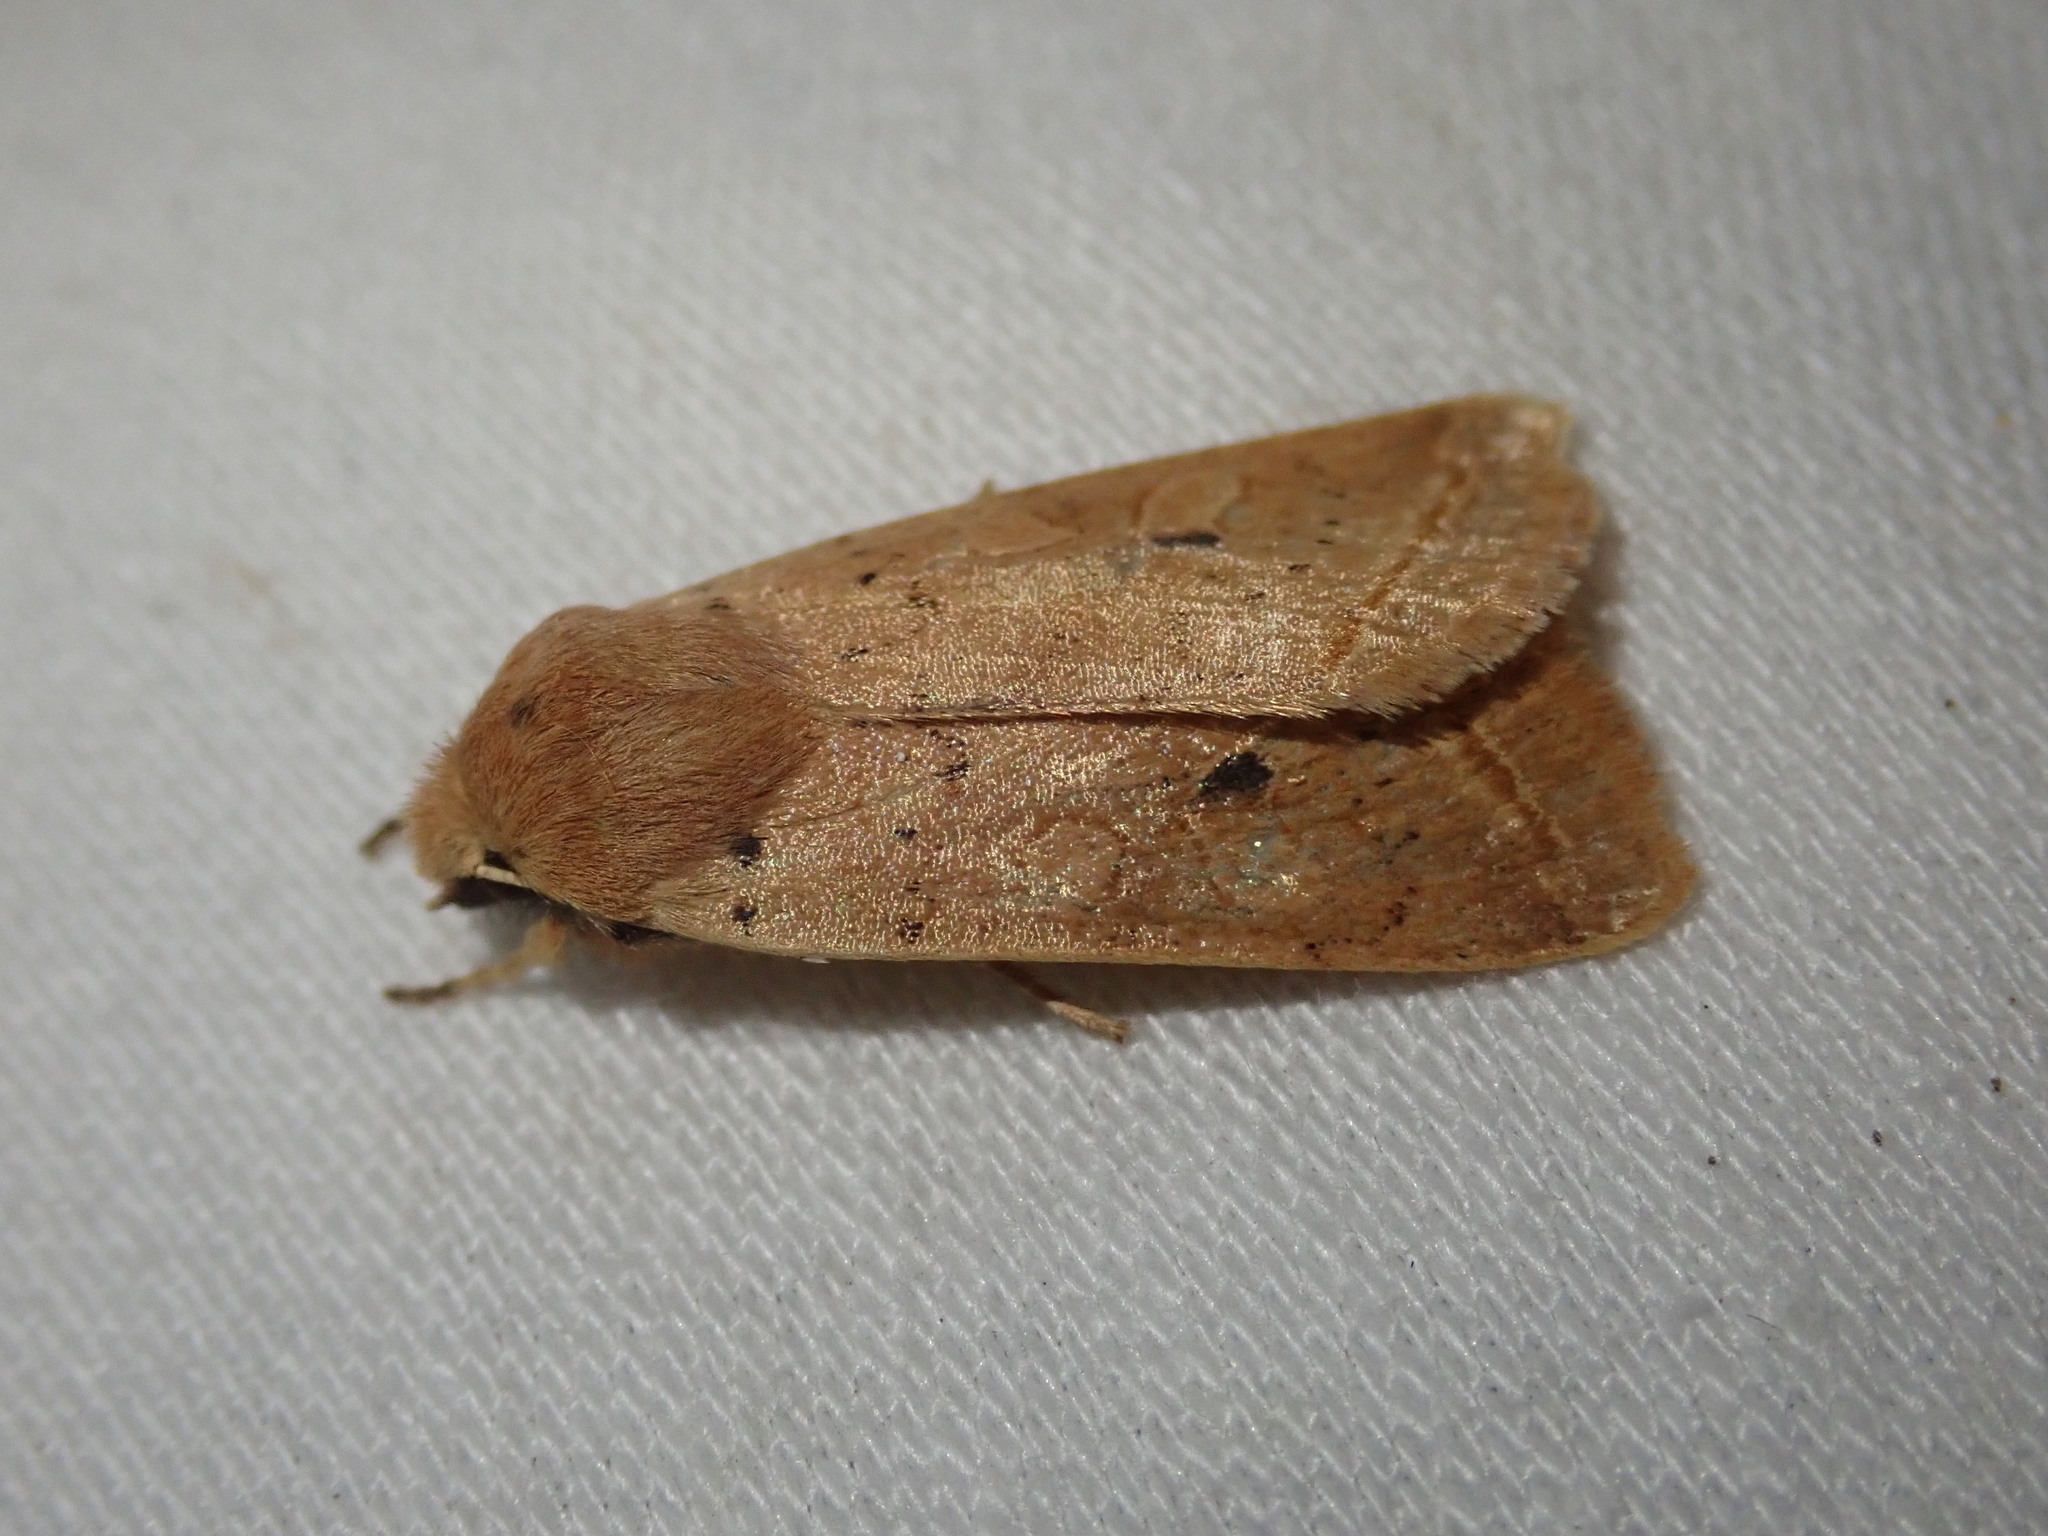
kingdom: Animalia
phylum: Arthropoda
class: Insecta
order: Lepidoptera
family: Noctuidae
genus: Agrochola
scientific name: Agrochola macilenta
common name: Yellow-line quaker
